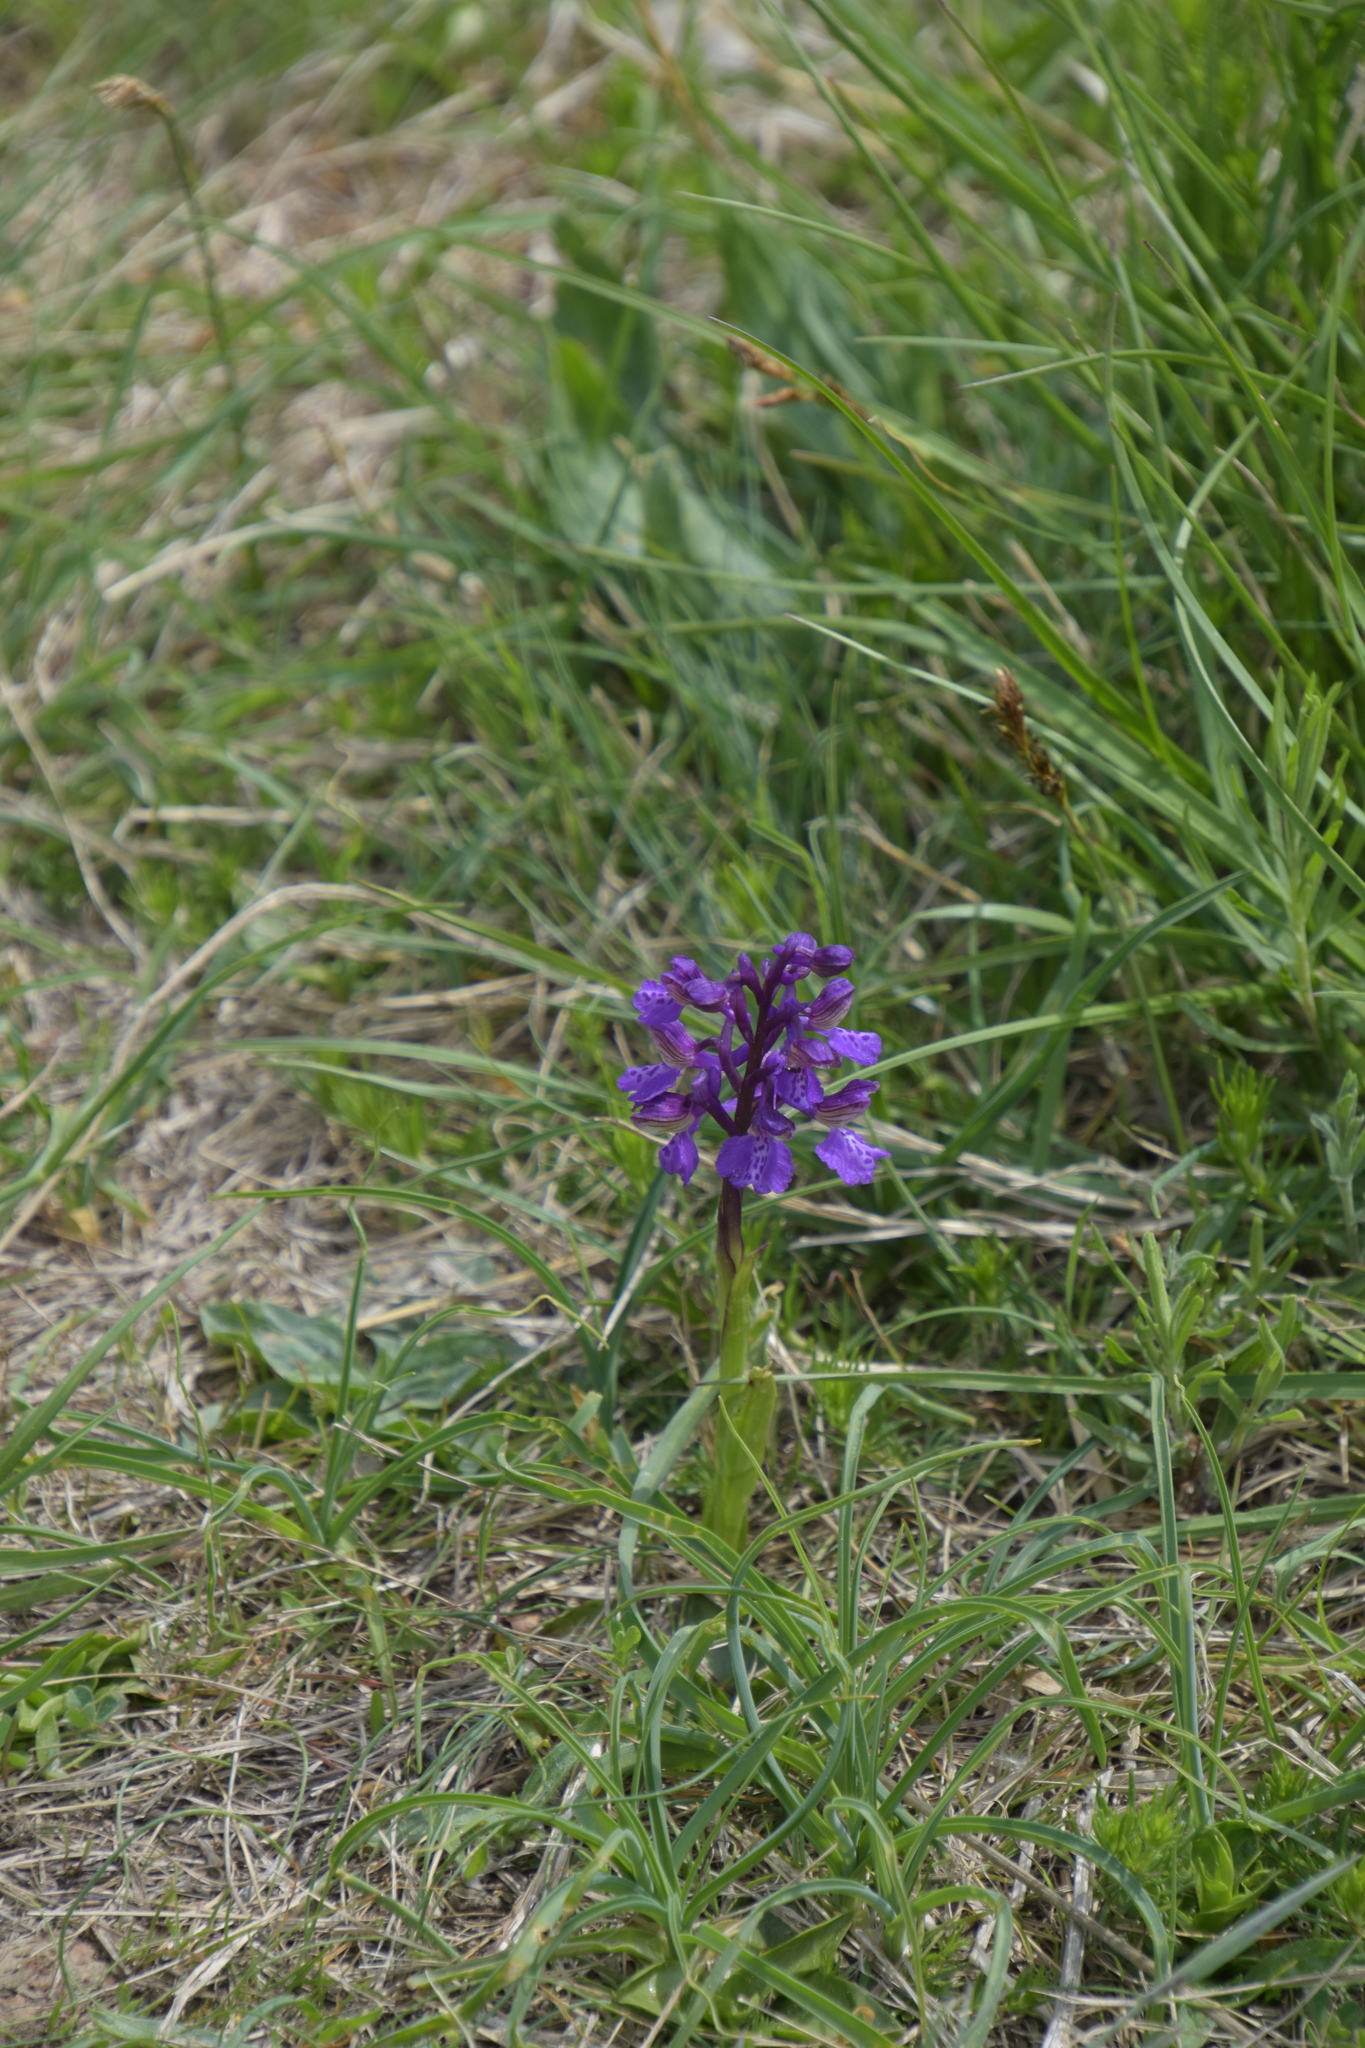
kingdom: Plantae
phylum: Tracheophyta
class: Liliopsida
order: Asparagales
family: Orchidaceae
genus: Anacamptis
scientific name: Anacamptis morio
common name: Green-winged orchid
